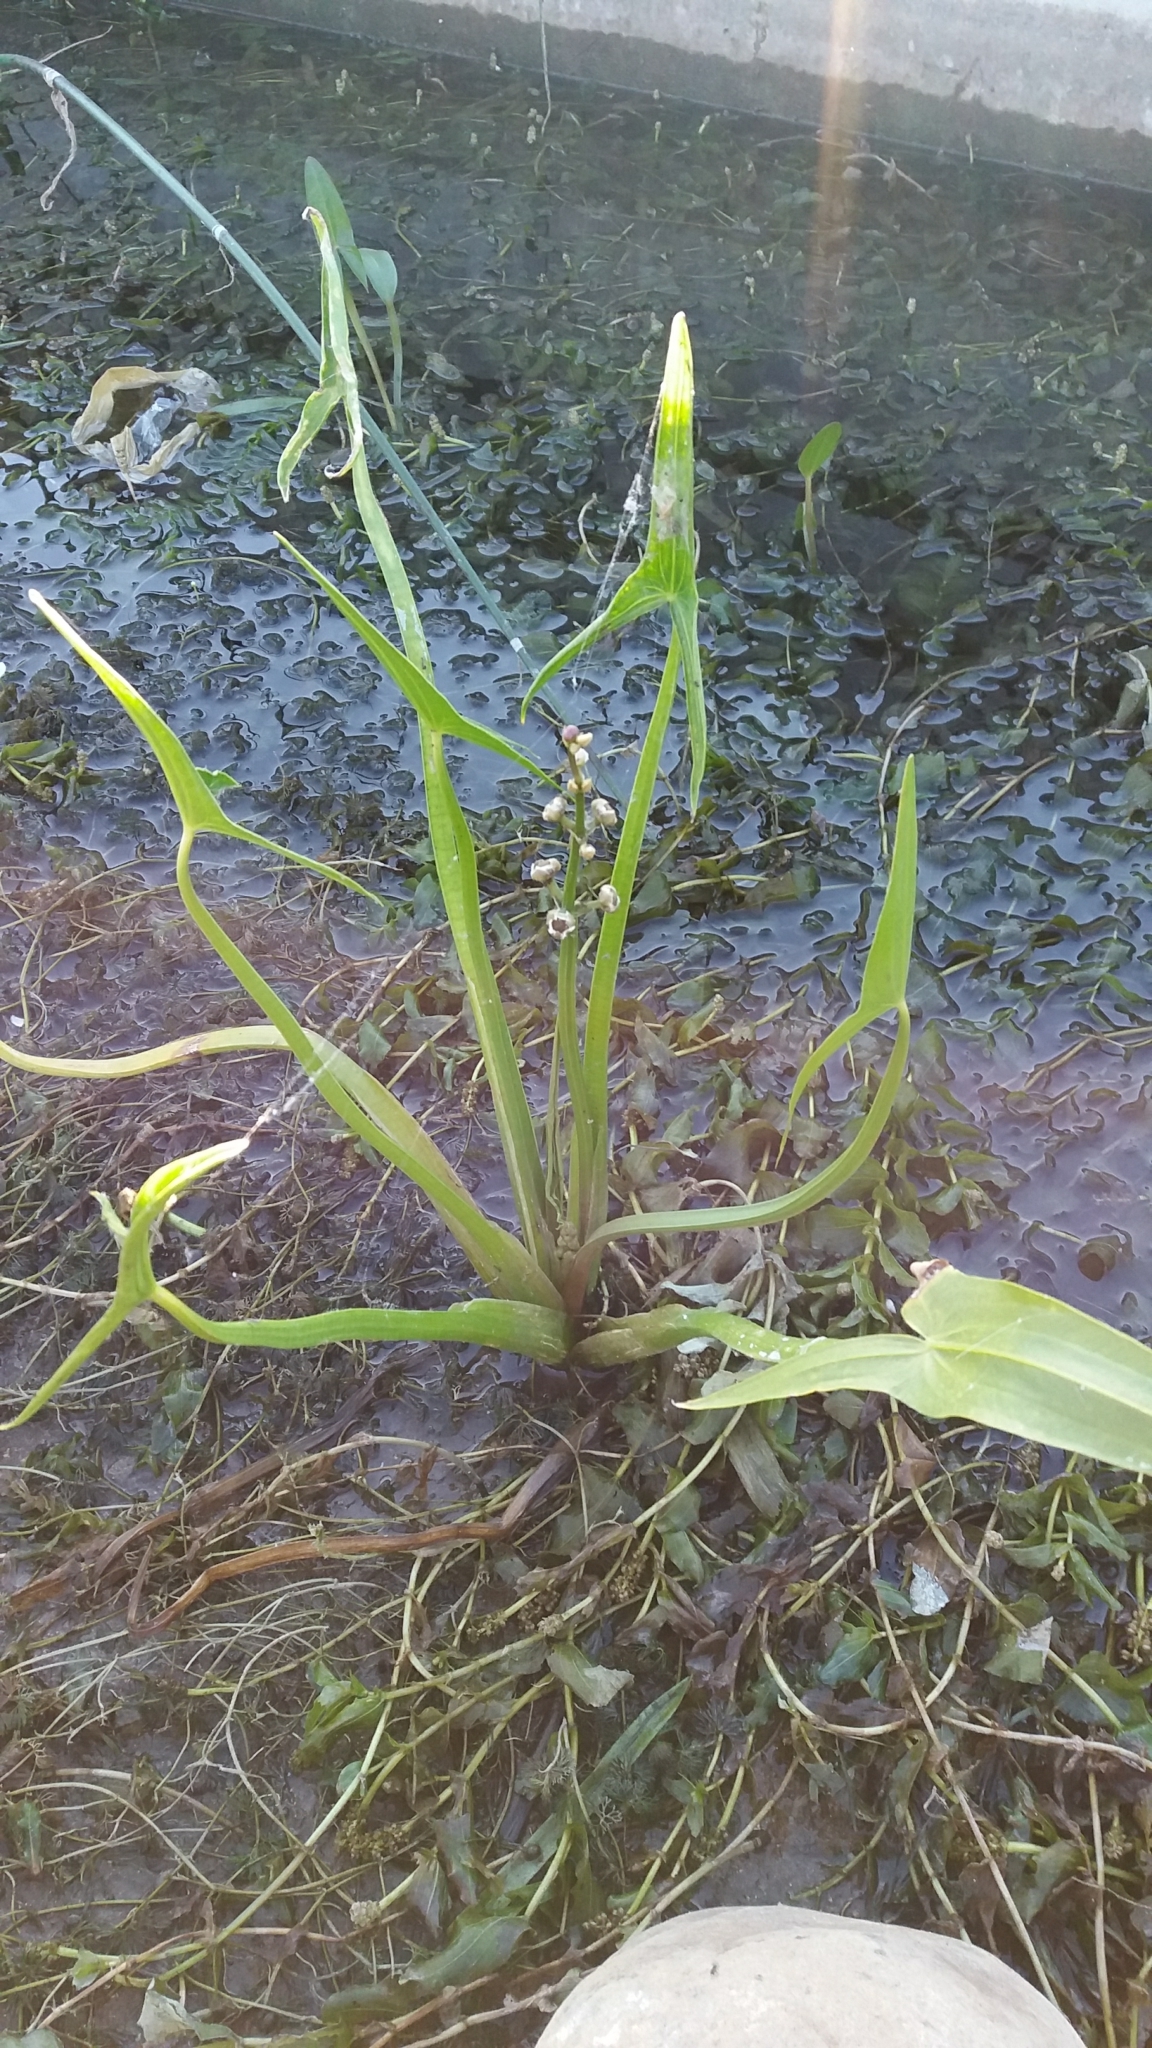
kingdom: Plantae
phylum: Tracheophyta
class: Liliopsida
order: Alismatales
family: Alismataceae
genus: Sagittaria
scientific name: Sagittaria sagittifolia
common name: Arrowhead
